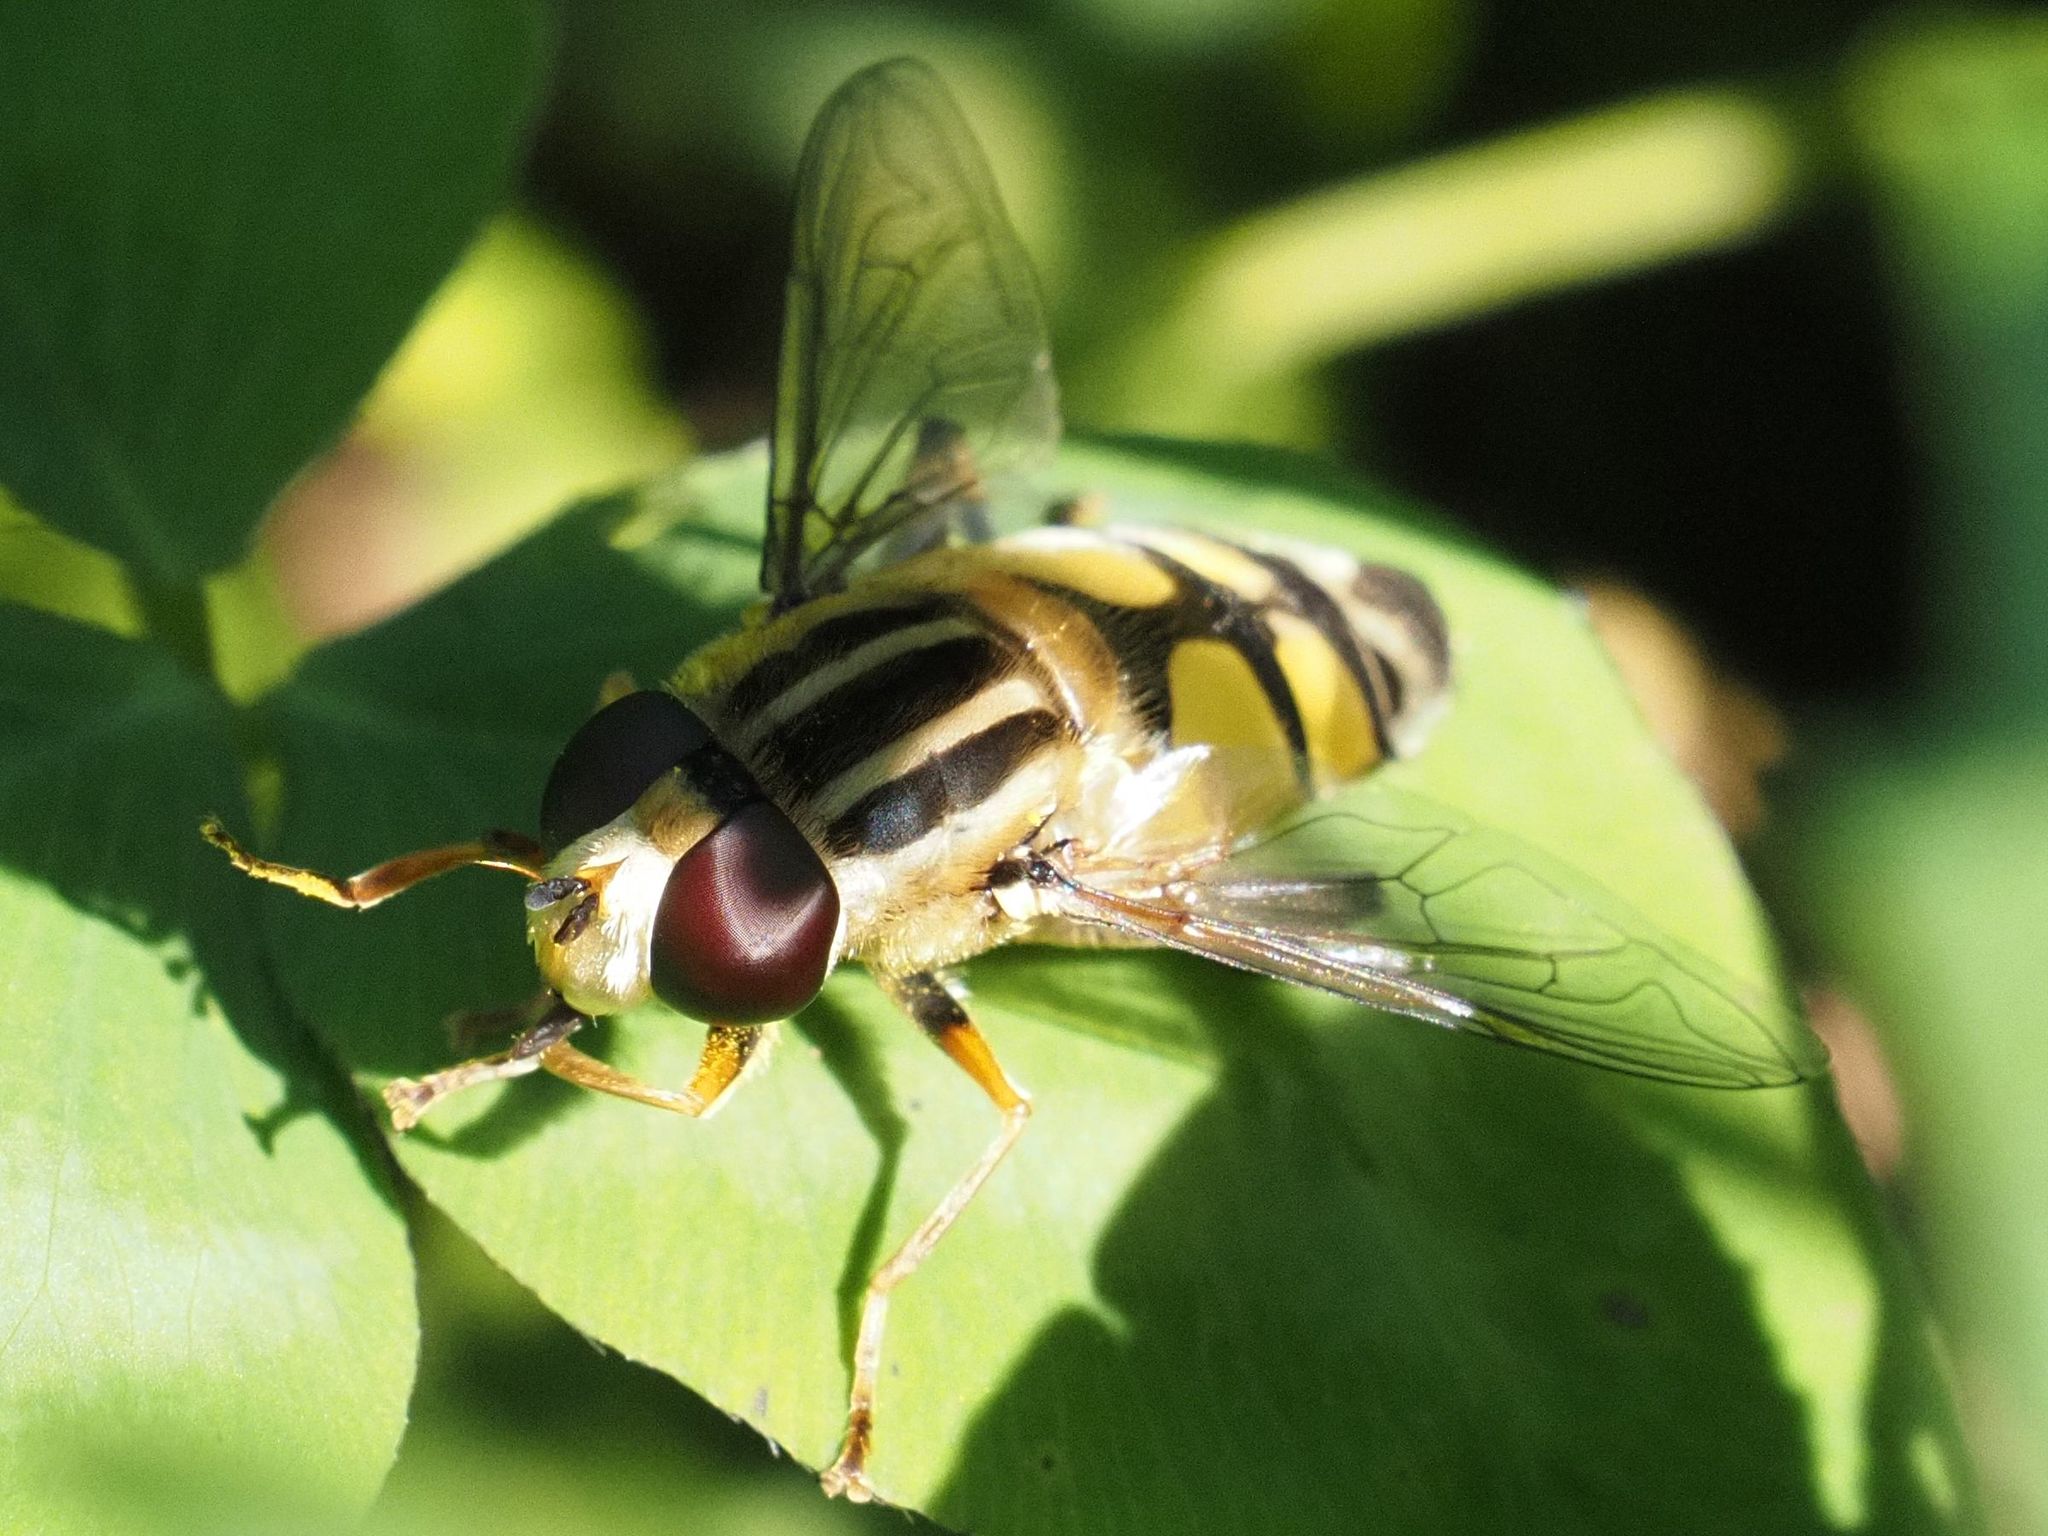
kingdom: Animalia
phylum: Arthropoda
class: Insecta
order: Diptera
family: Syrphidae
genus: Helophilus
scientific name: Helophilus trivittatus
